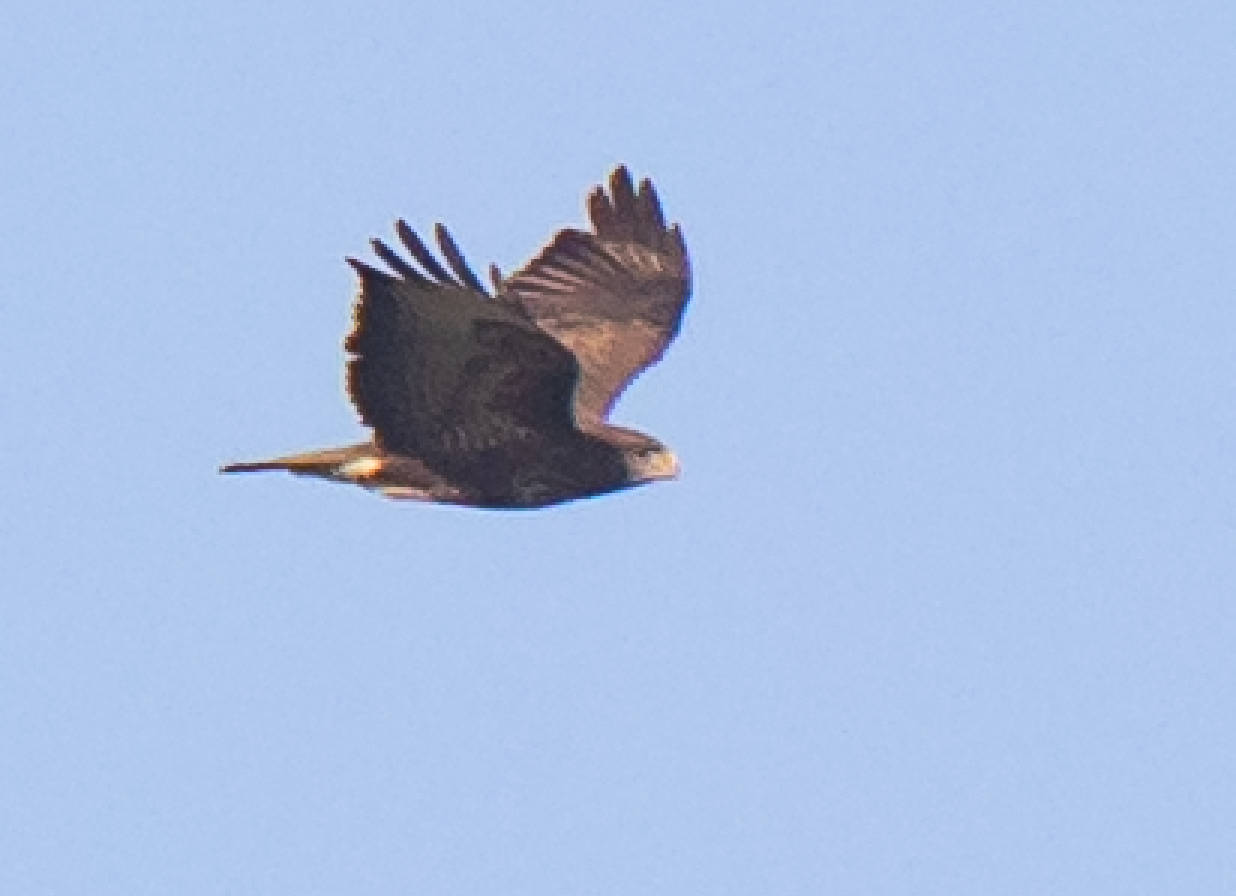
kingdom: Animalia
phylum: Chordata
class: Aves
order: Accipitriformes
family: Accipitridae
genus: Buteo
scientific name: Buteo buteo
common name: Common buzzard
